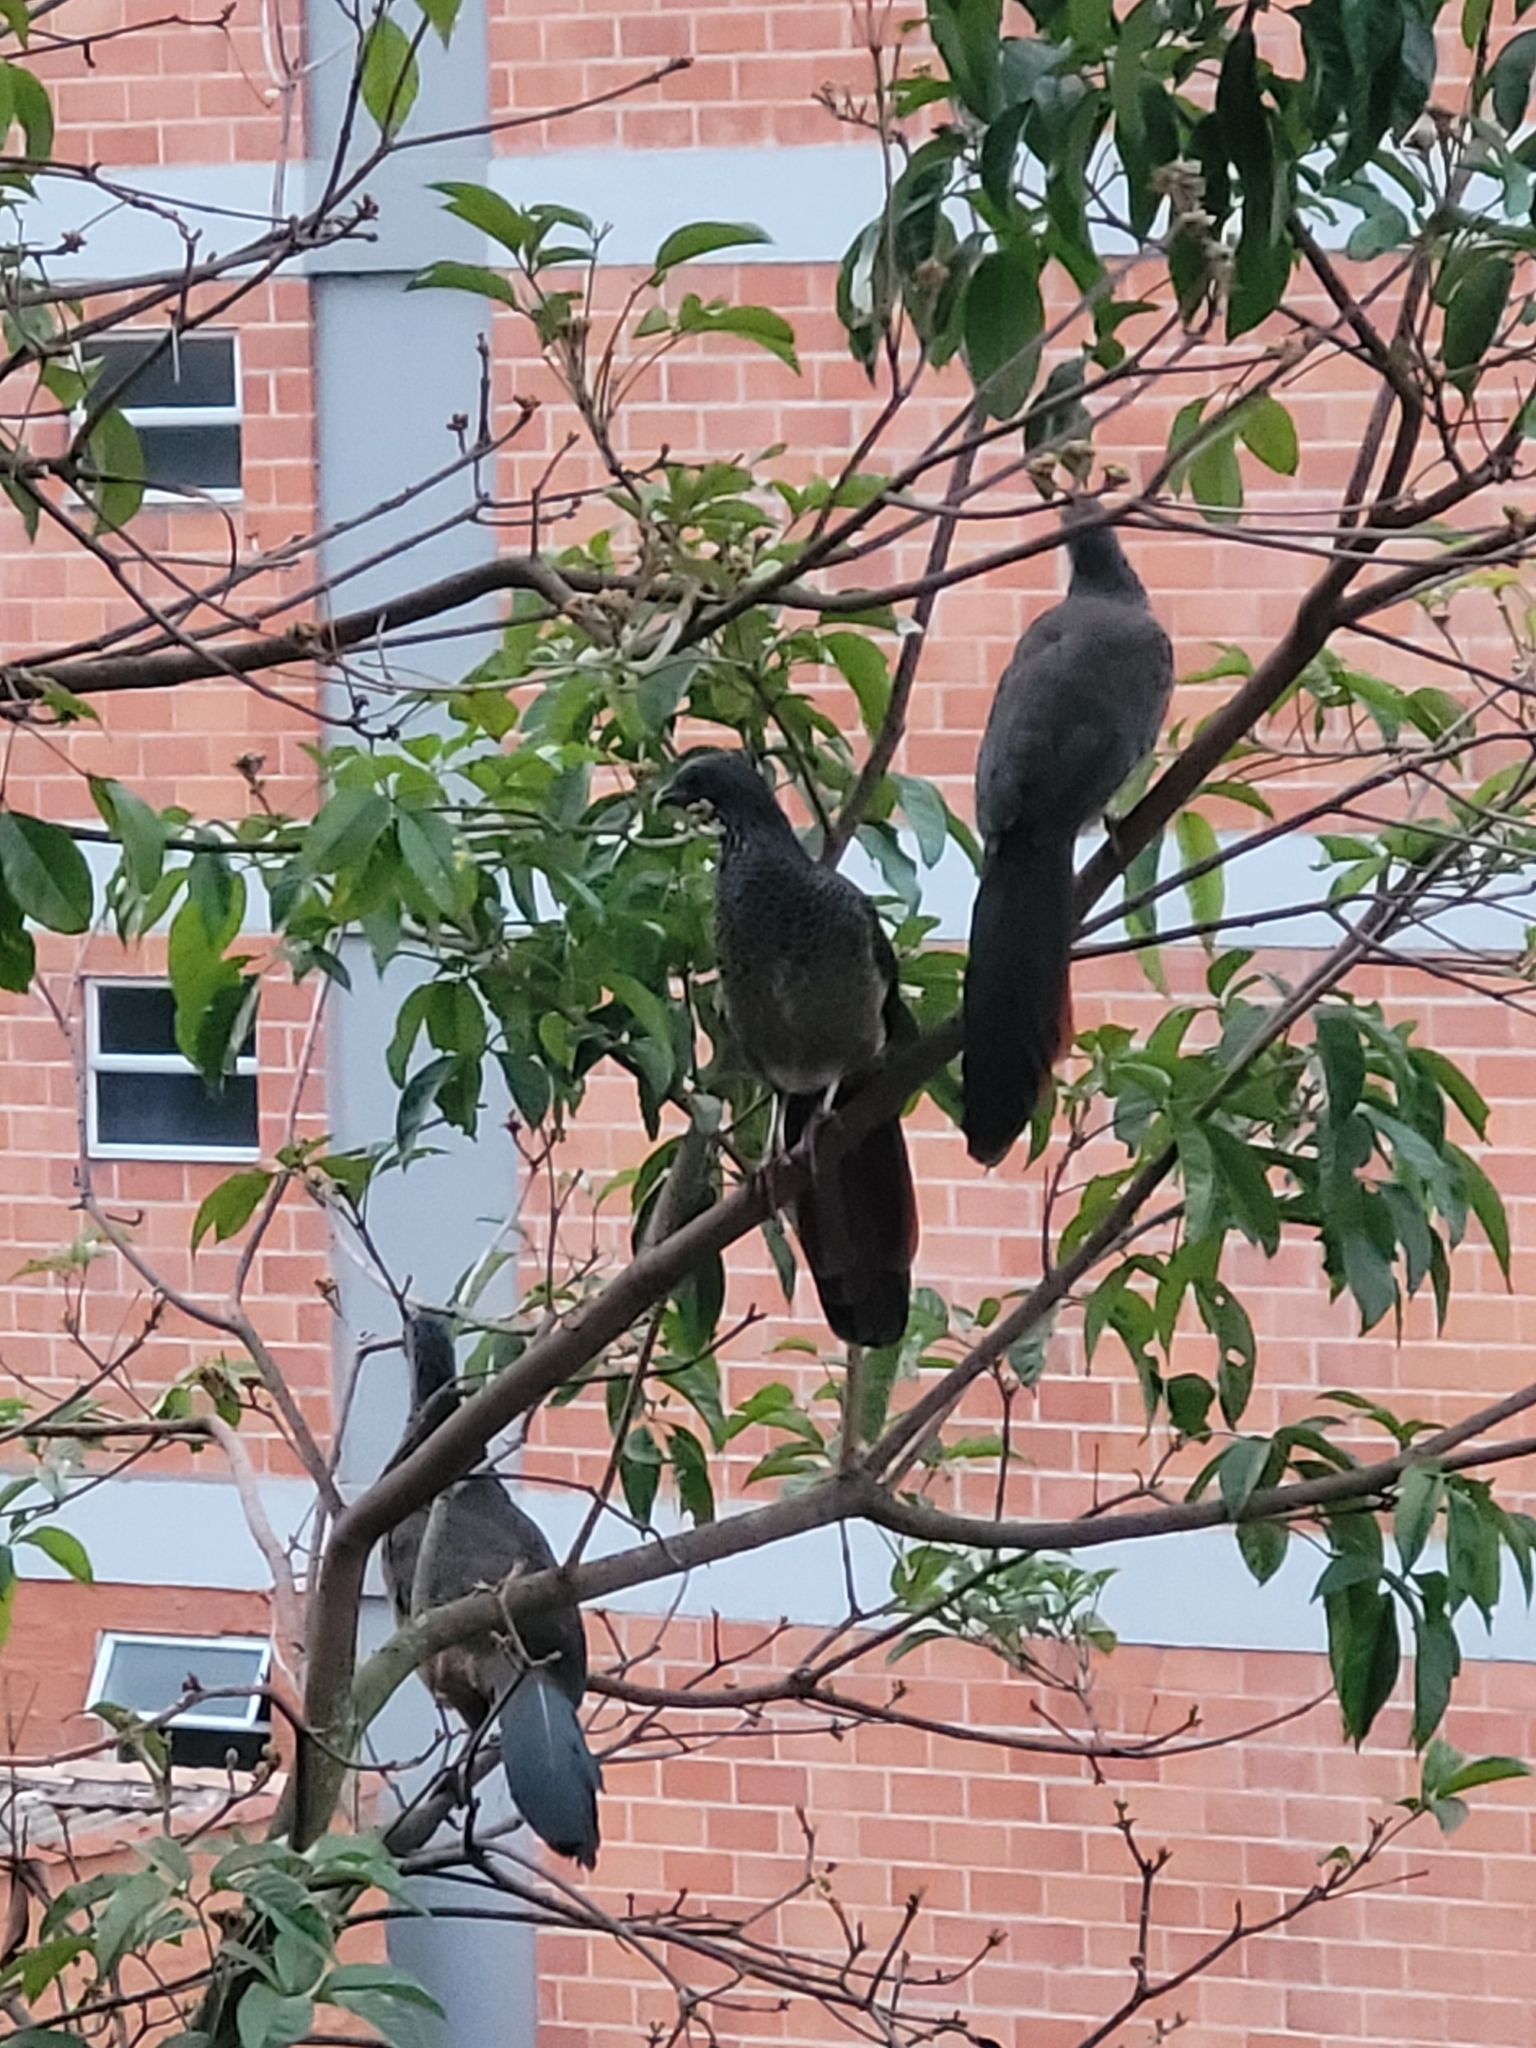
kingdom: Animalia
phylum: Chordata
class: Aves
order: Galliformes
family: Cracidae
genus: Ortalis
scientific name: Ortalis columbiana
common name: Colombian chachalaca
